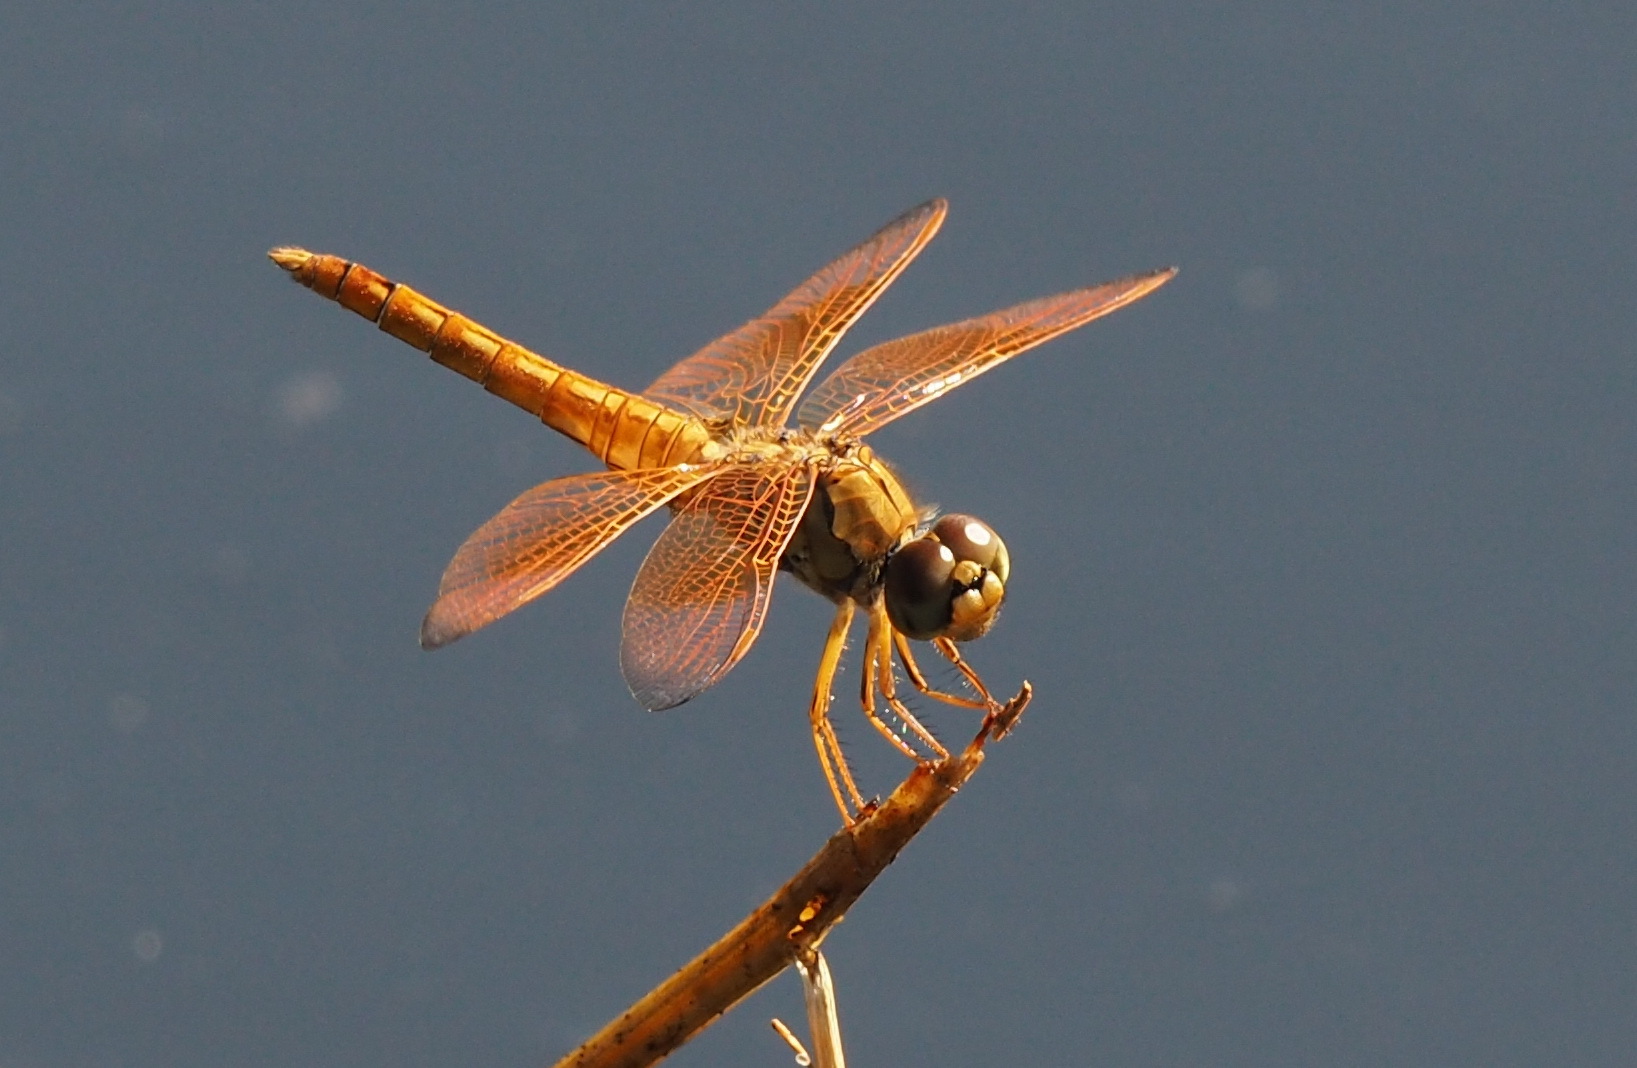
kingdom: Animalia
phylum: Arthropoda
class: Insecta
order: Odonata
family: Libellulidae
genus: Brachythemis
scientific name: Brachythemis contaminata
